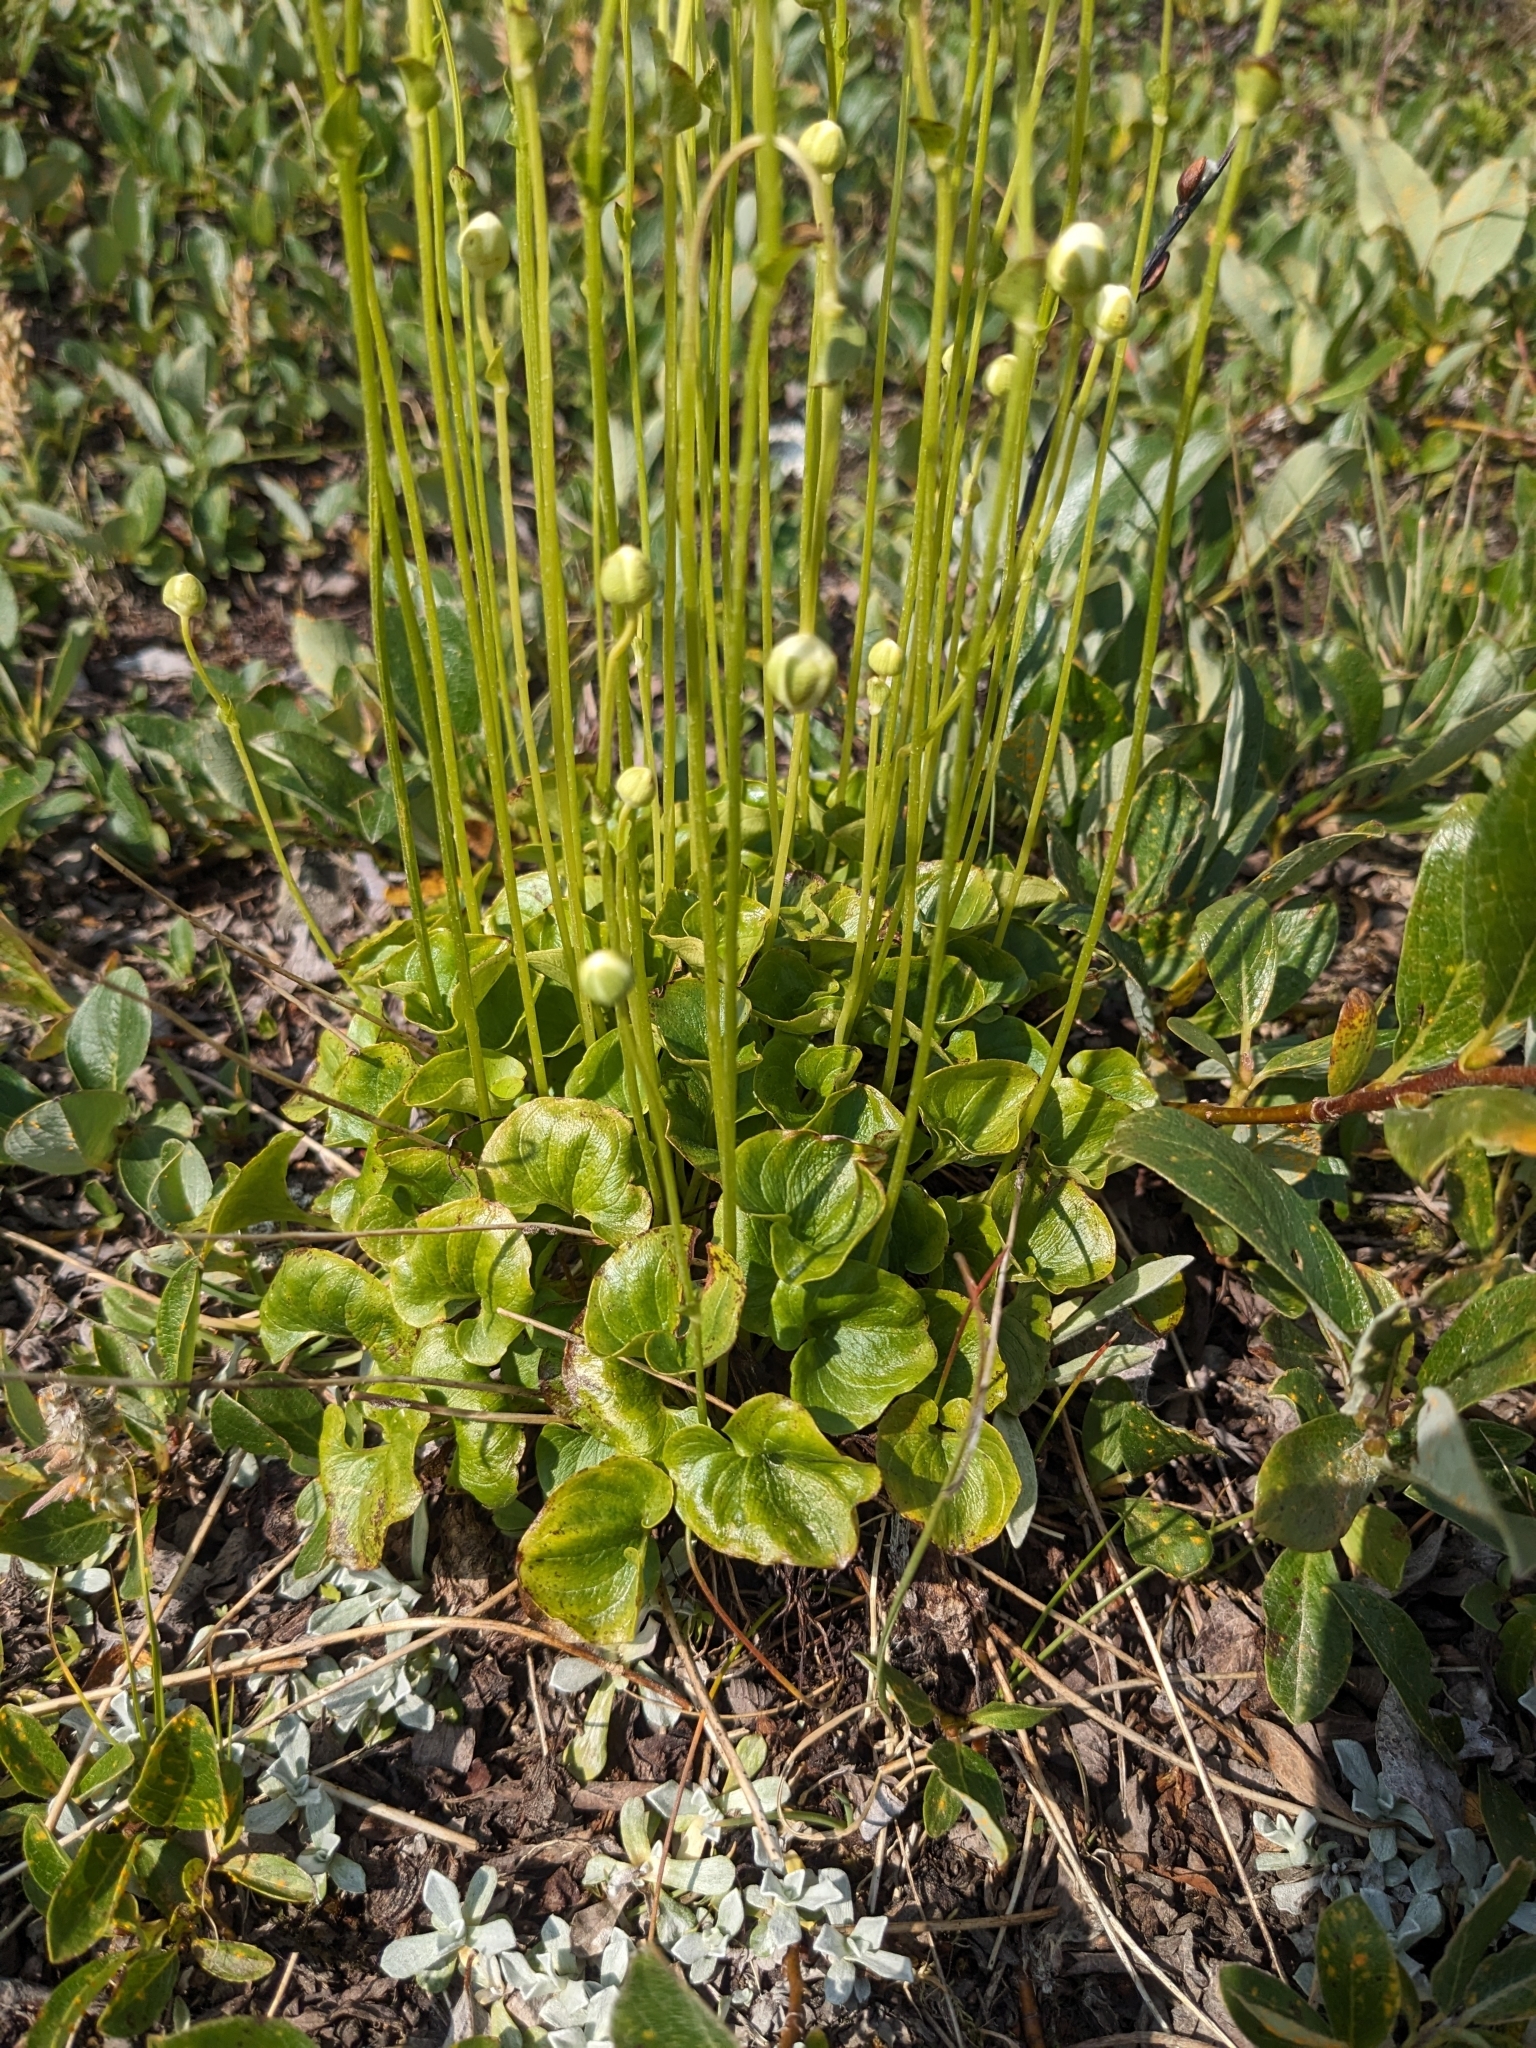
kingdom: Plantae
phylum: Tracheophyta
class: Magnoliopsida
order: Celastrales
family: Parnassiaceae
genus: Parnassia
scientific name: Parnassia fimbriata
